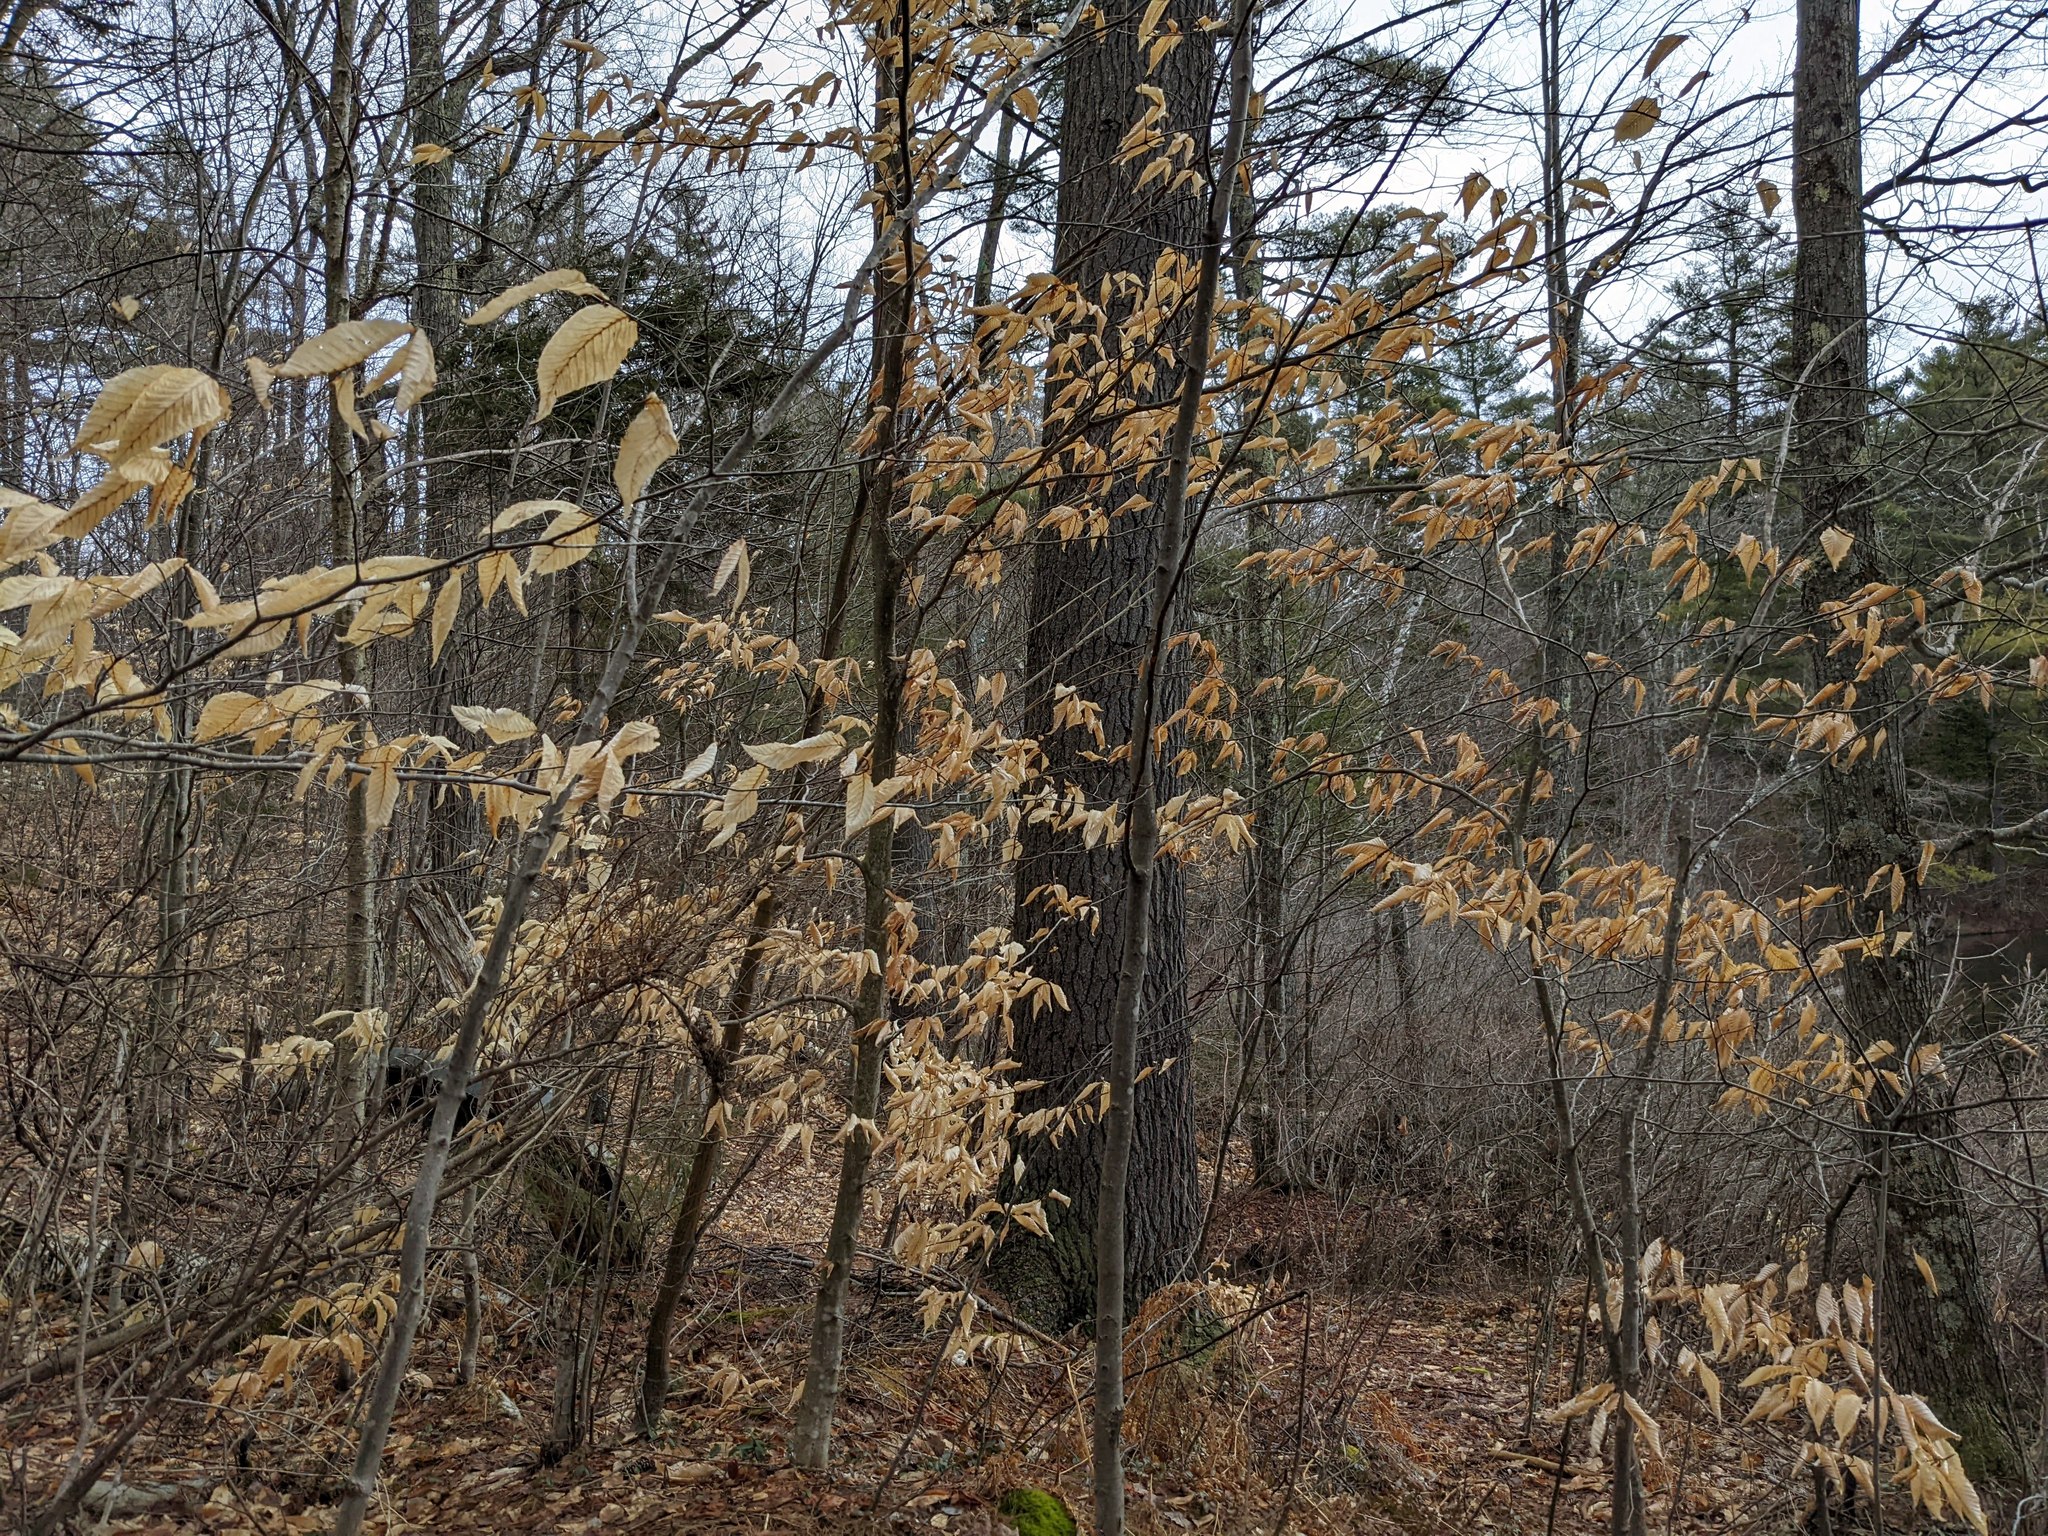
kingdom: Plantae
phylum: Tracheophyta
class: Magnoliopsida
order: Fagales
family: Fagaceae
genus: Fagus
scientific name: Fagus grandifolia
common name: American beech
